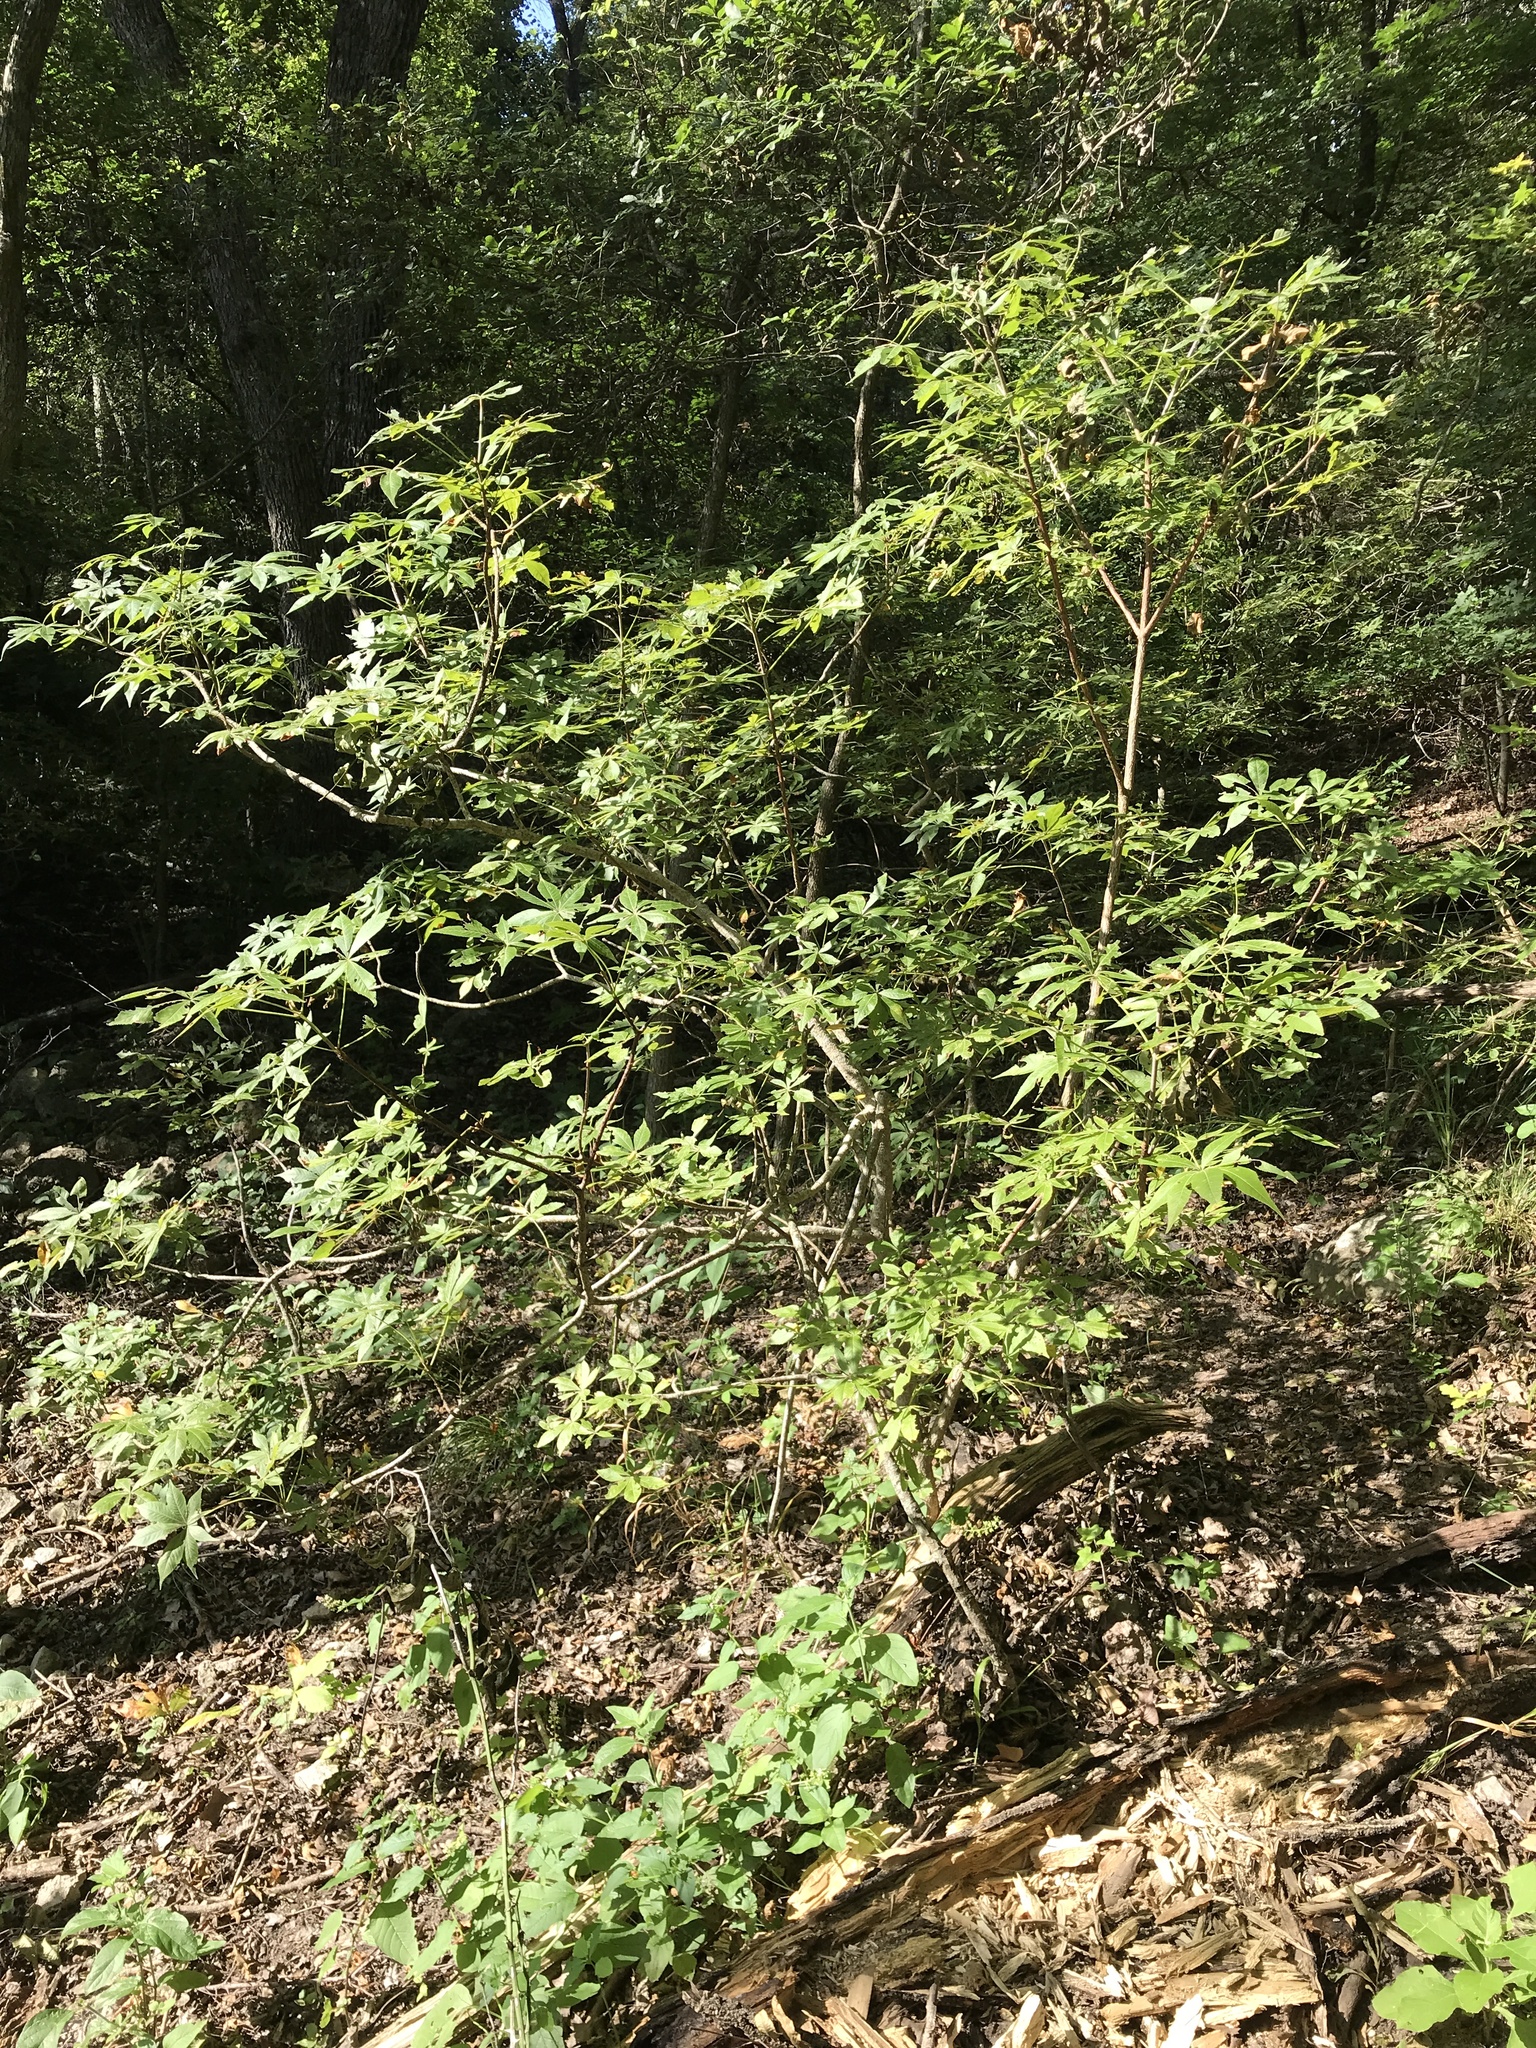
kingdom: Plantae
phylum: Tracheophyta
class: Magnoliopsida
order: Sapindales
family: Sapindaceae
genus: Aesculus
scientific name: Aesculus glabra
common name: Ohio buckeye
